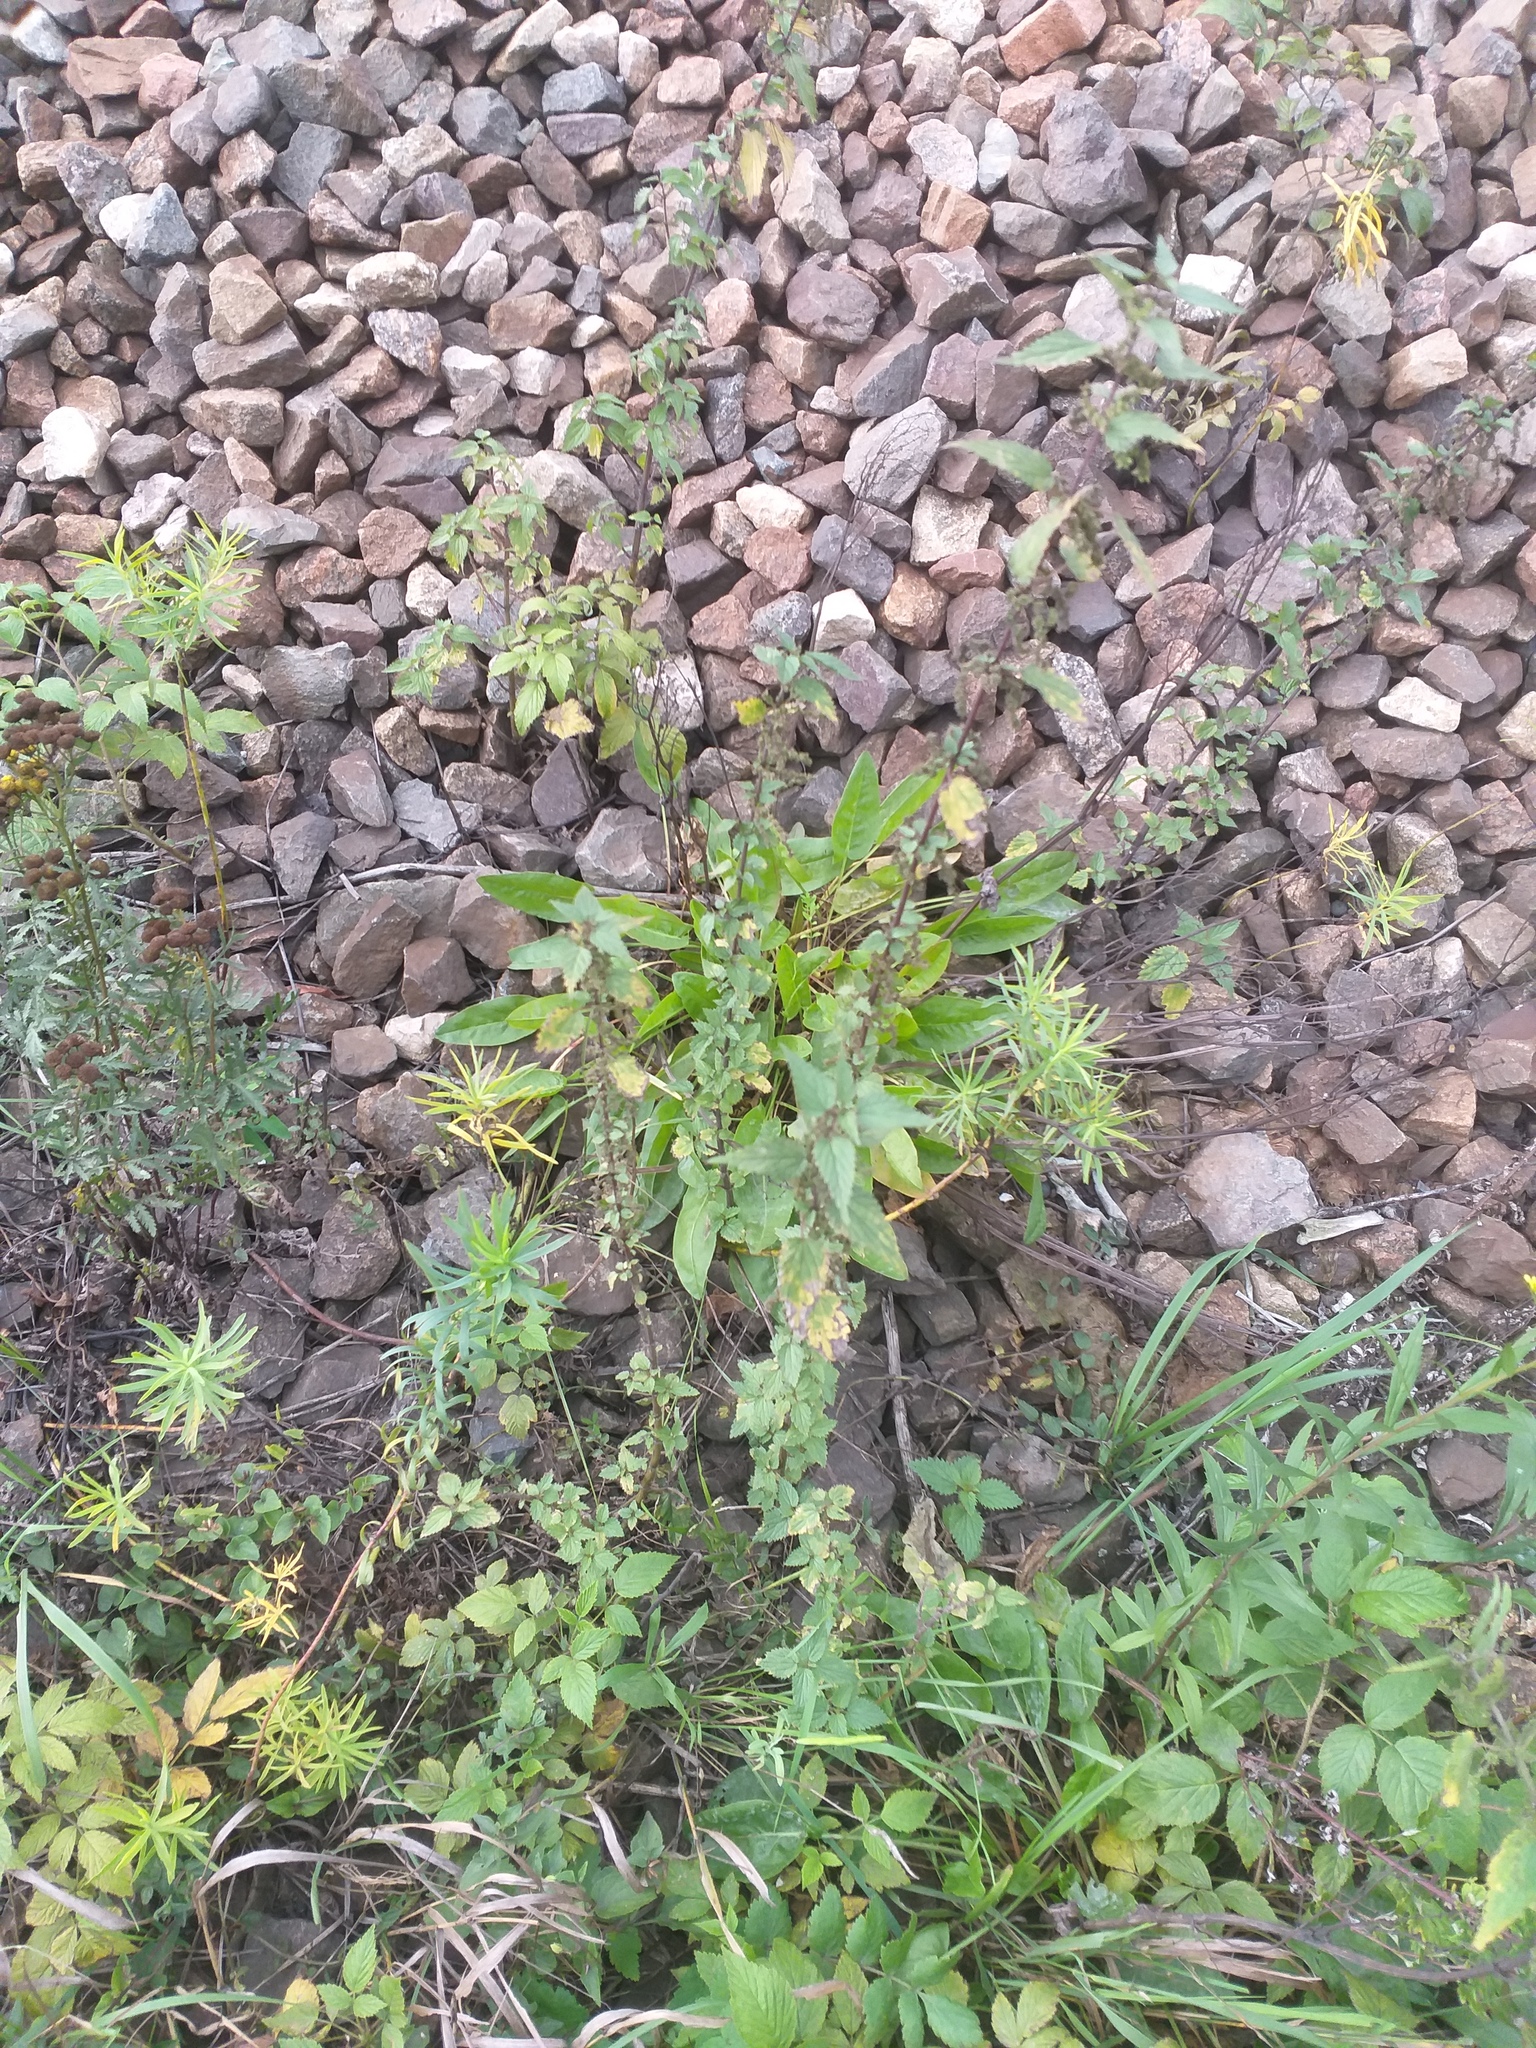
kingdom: Plantae
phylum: Tracheophyta
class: Magnoliopsida
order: Rosales
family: Urticaceae
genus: Urtica
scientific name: Urtica dioica
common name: Common nettle
